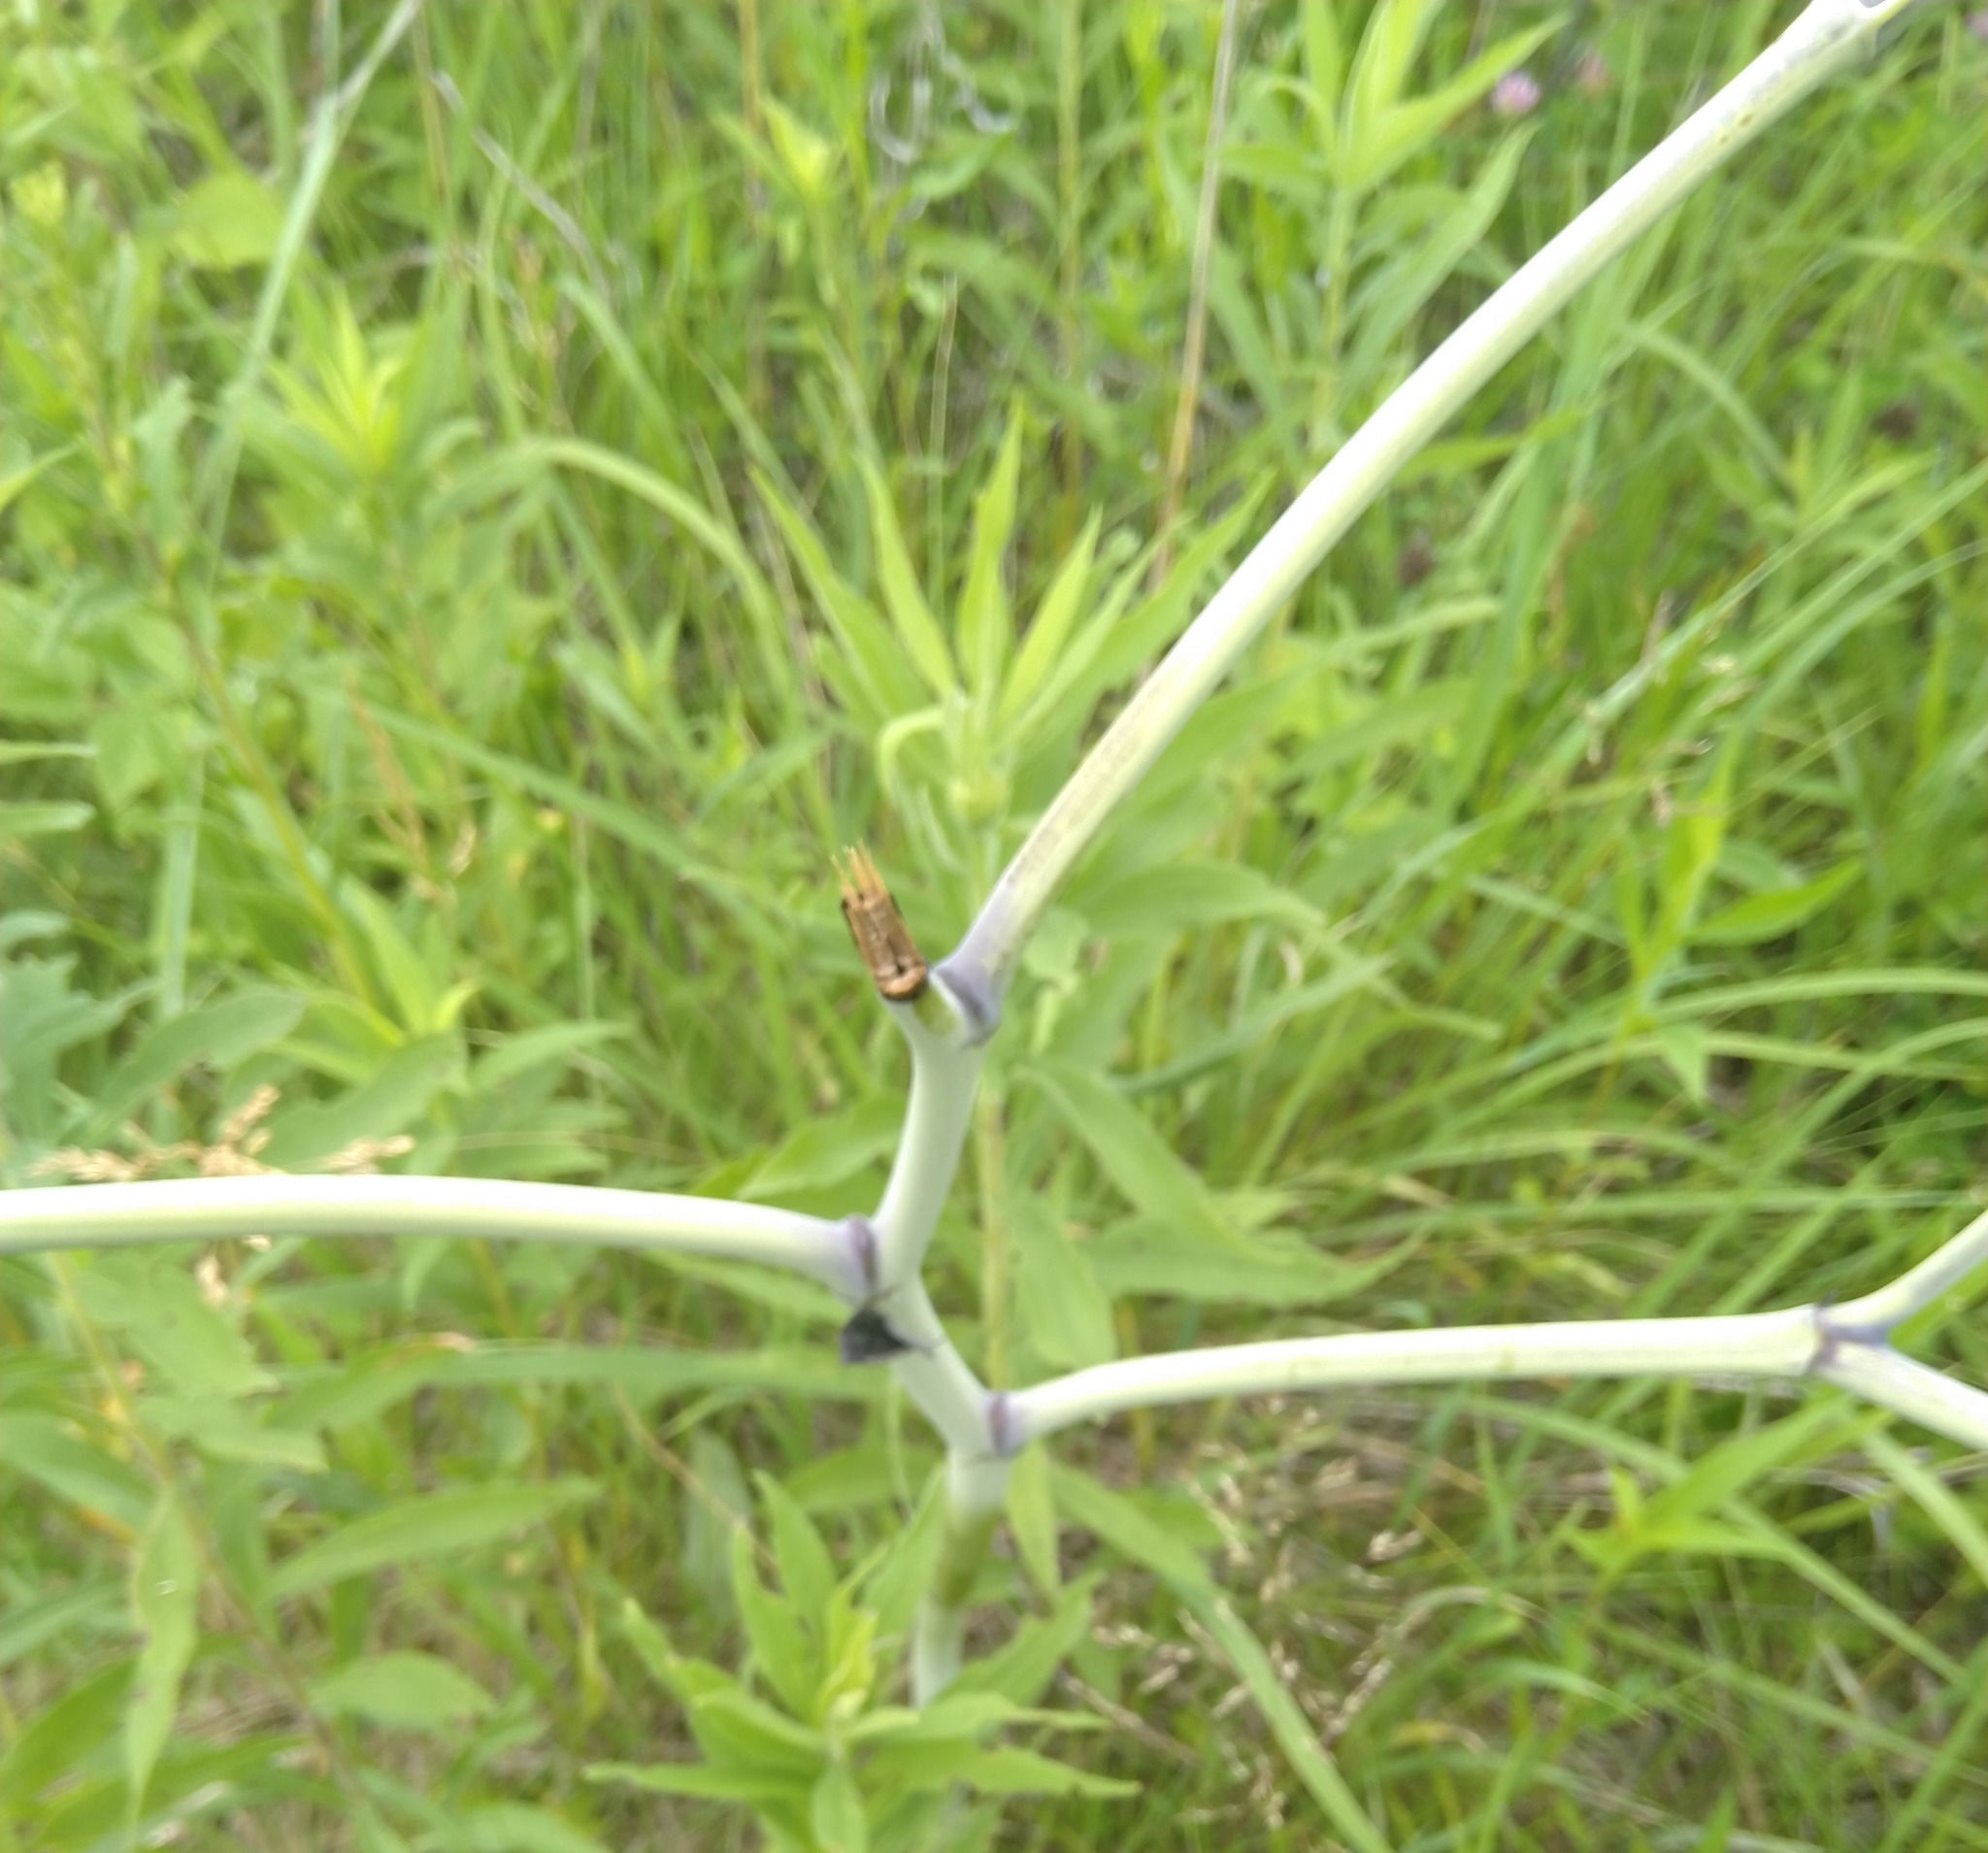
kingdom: Plantae
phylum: Tracheophyta
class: Magnoliopsida
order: Fabales
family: Fabaceae
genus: Baptisia
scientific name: Baptisia alba
